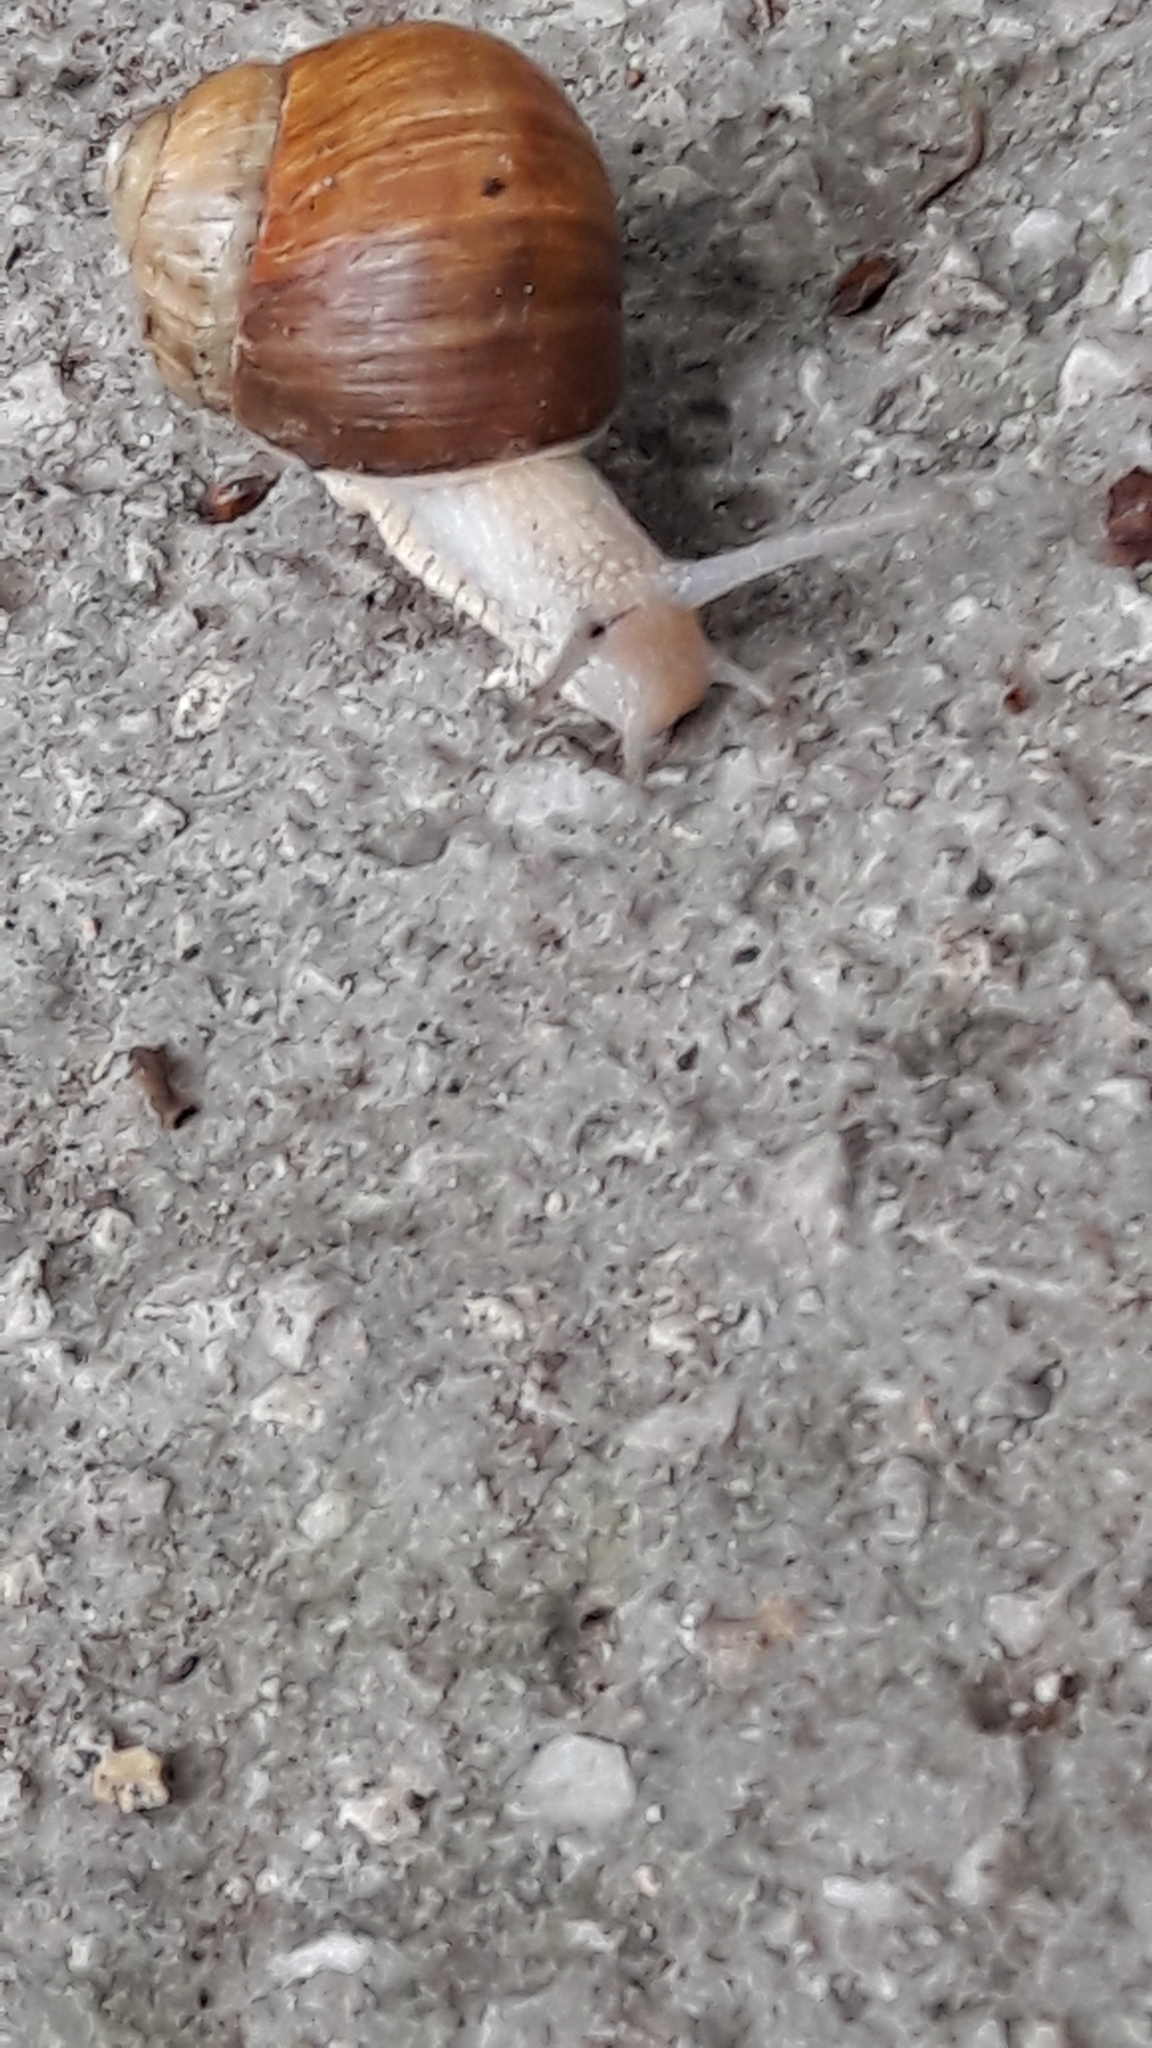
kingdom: Animalia
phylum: Mollusca
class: Gastropoda
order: Stylommatophora
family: Helicidae
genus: Helix
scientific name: Helix pomatia
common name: Roman snail
